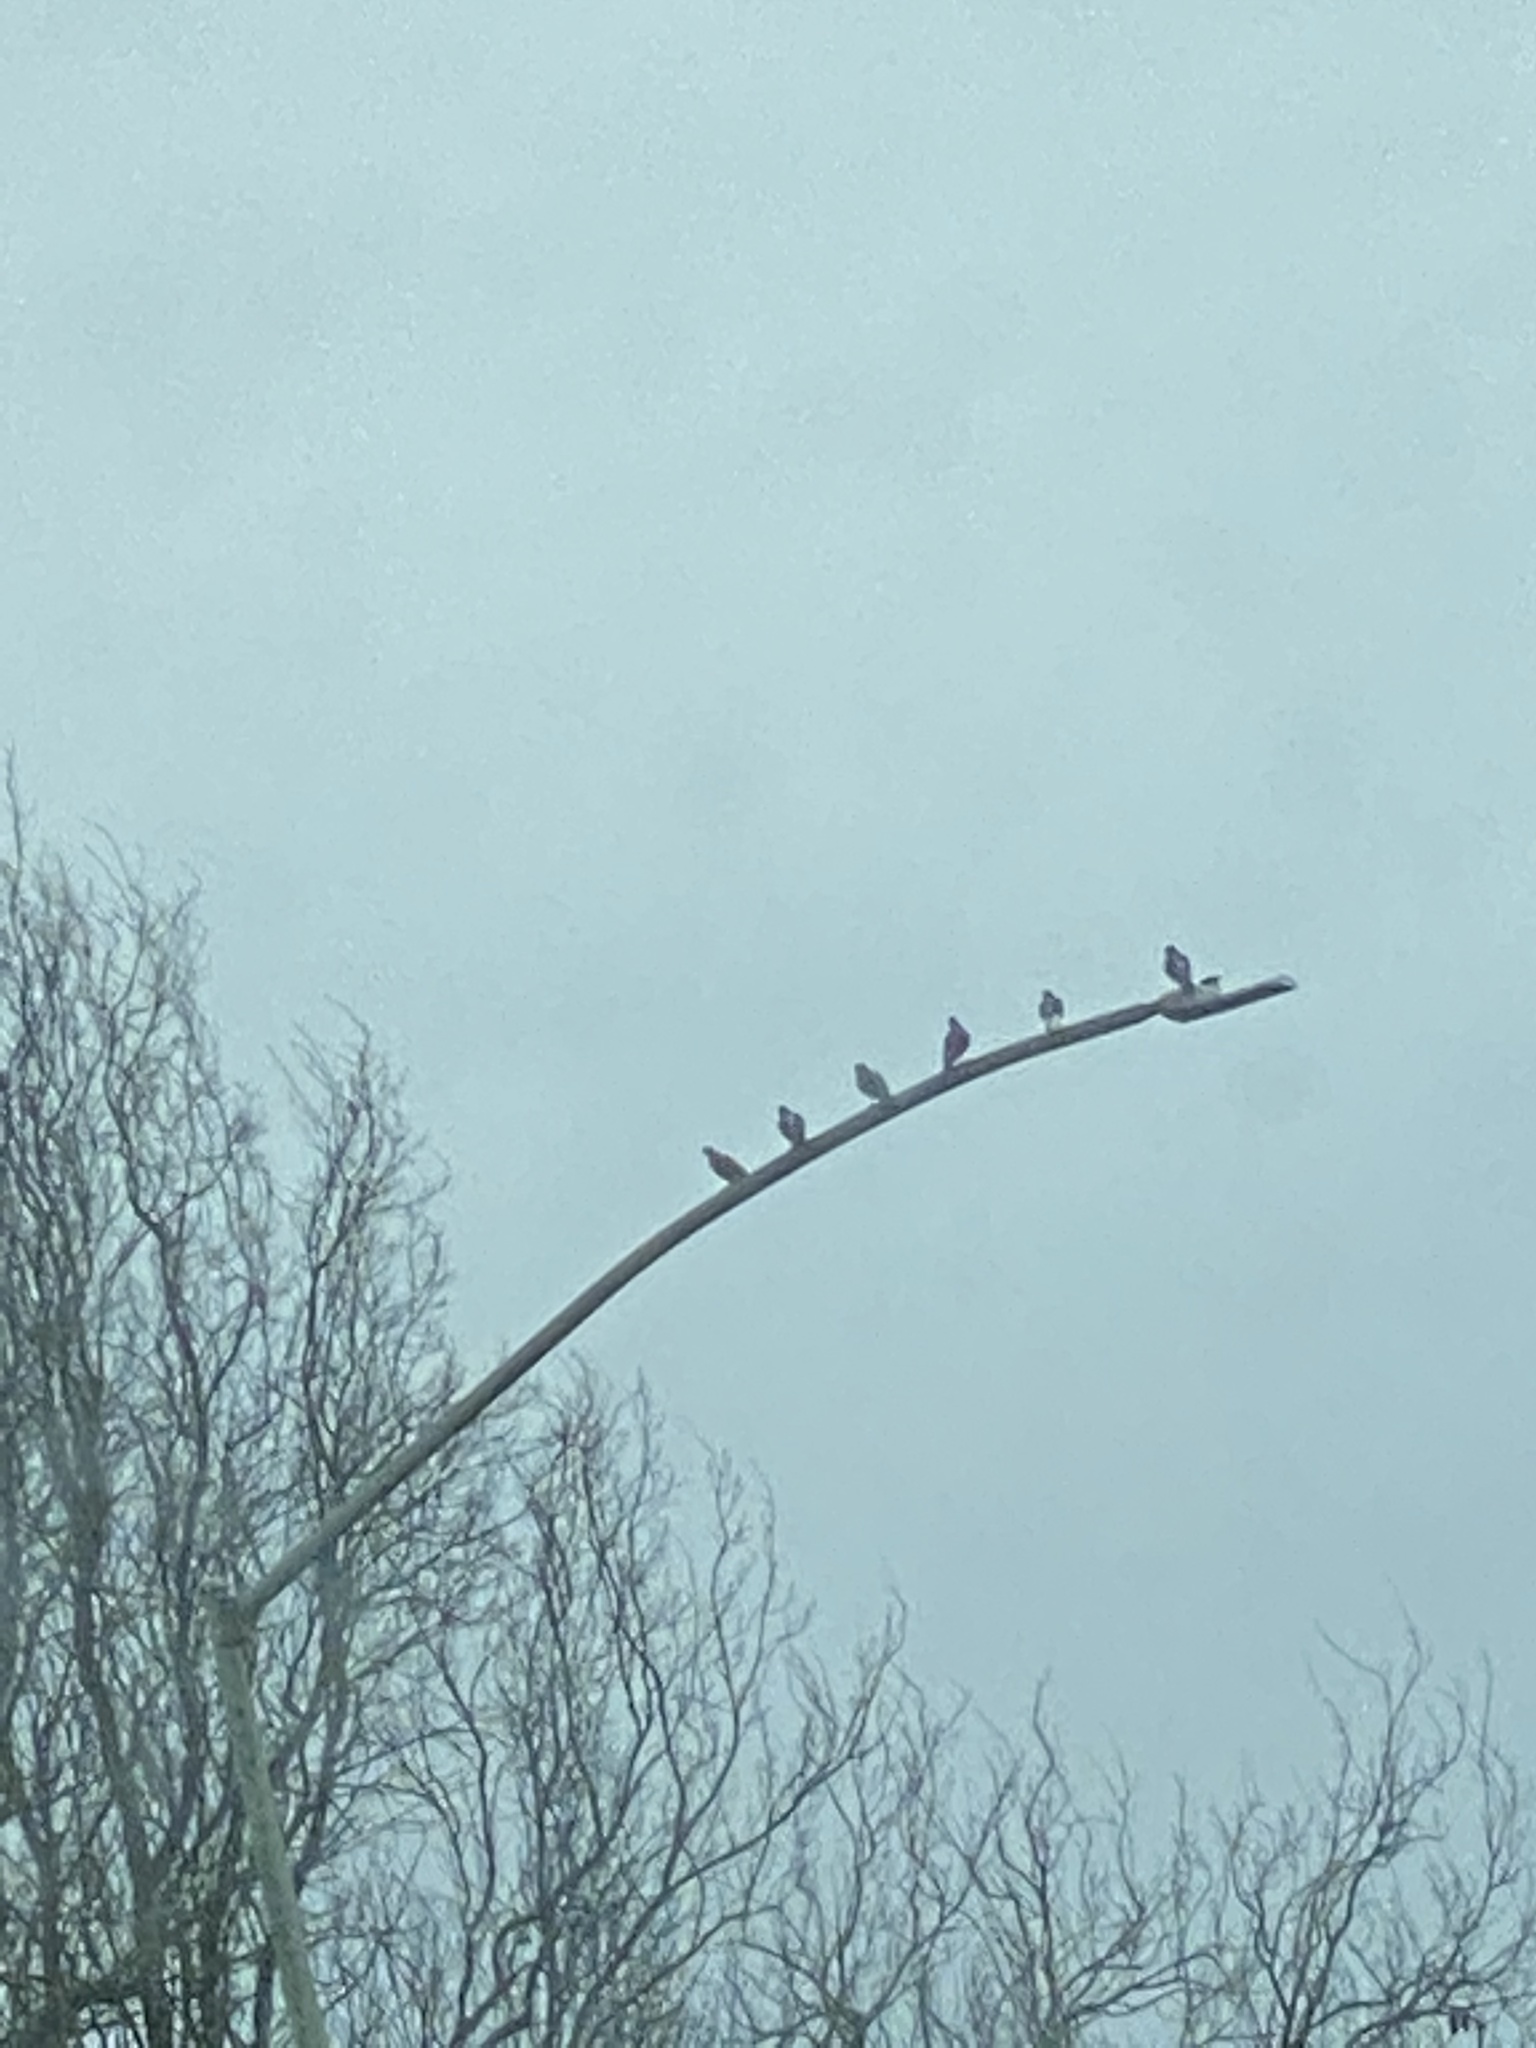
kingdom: Animalia
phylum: Chordata
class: Aves
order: Columbiformes
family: Columbidae
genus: Columba
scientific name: Columba livia
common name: Rock pigeon
